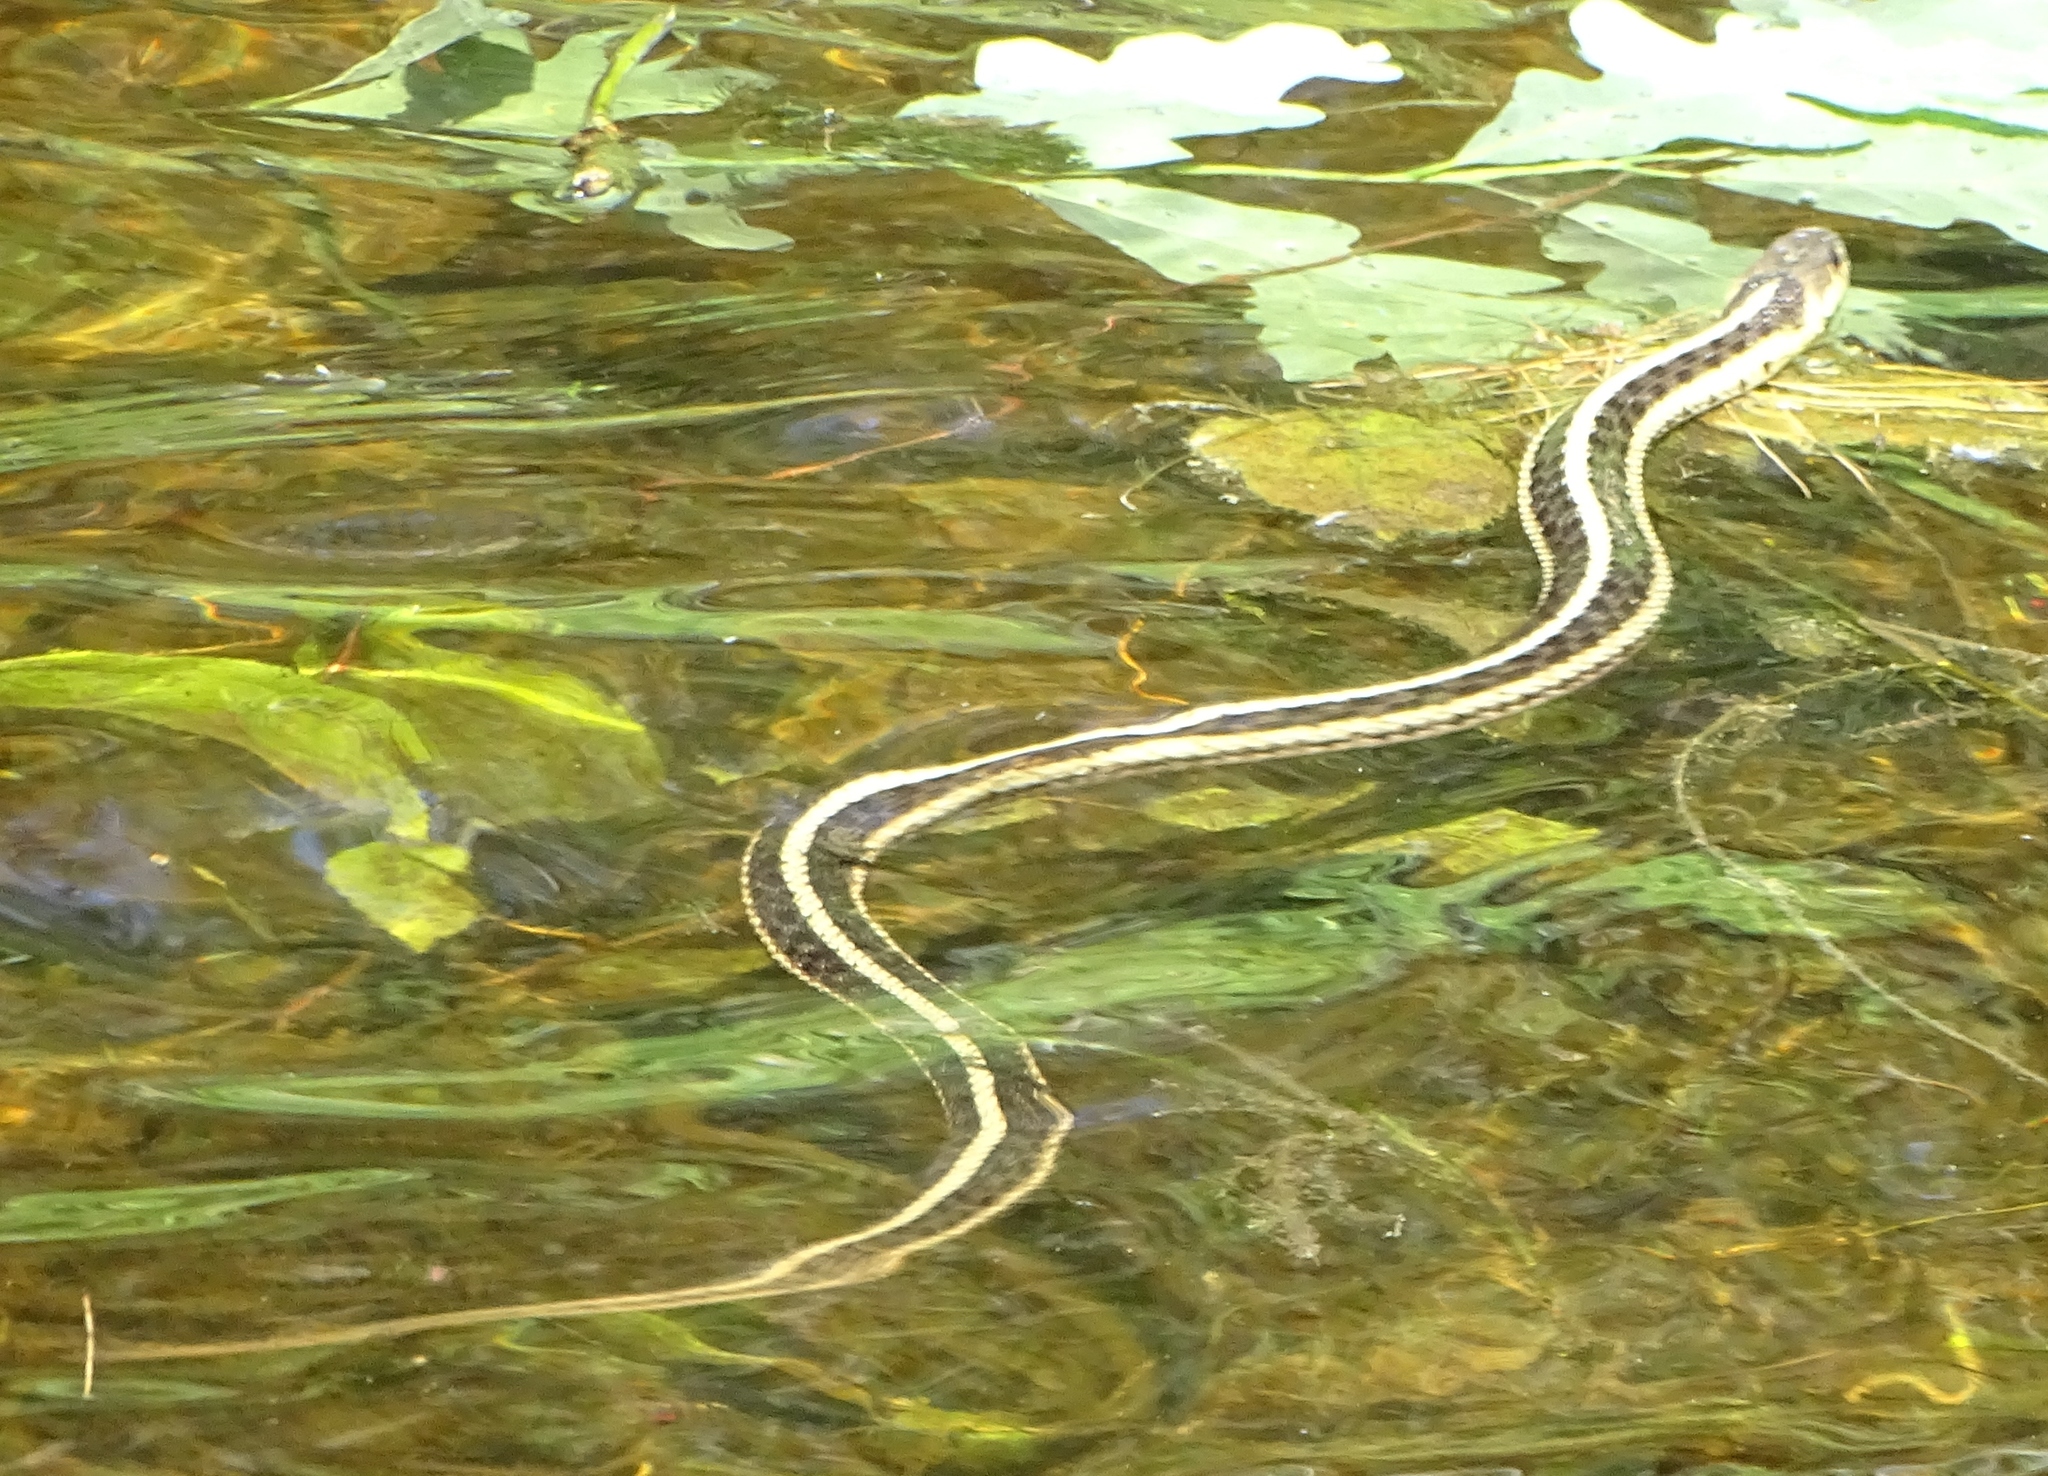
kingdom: Animalia
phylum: Chordata
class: Squamata
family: Colubridae
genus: Thamnophis
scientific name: Thamnophis sirtalis
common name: Common garter snake
